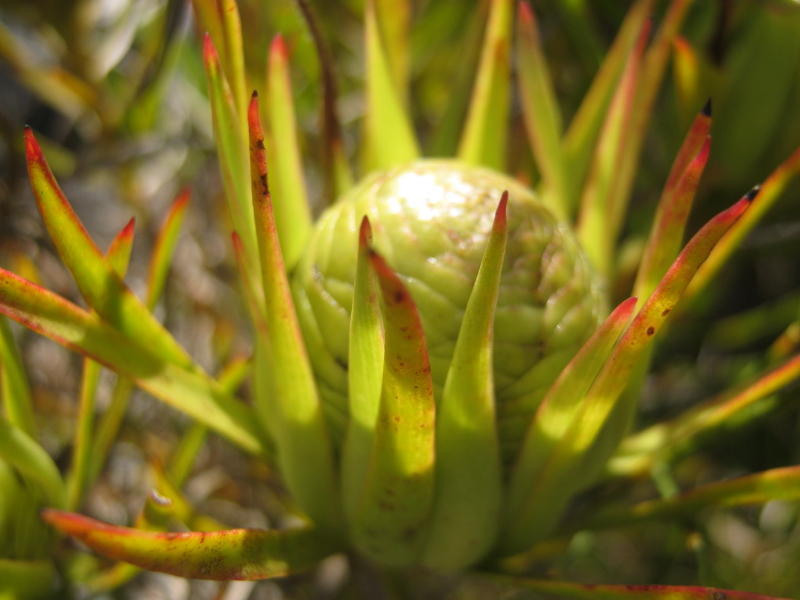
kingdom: Plantae
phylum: Tracheophyta
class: Magnoliopsida
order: Proteales
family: Proteaceae
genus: Leucadendron
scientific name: Leucadendron spissifolium
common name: Spear-leaf conebush
